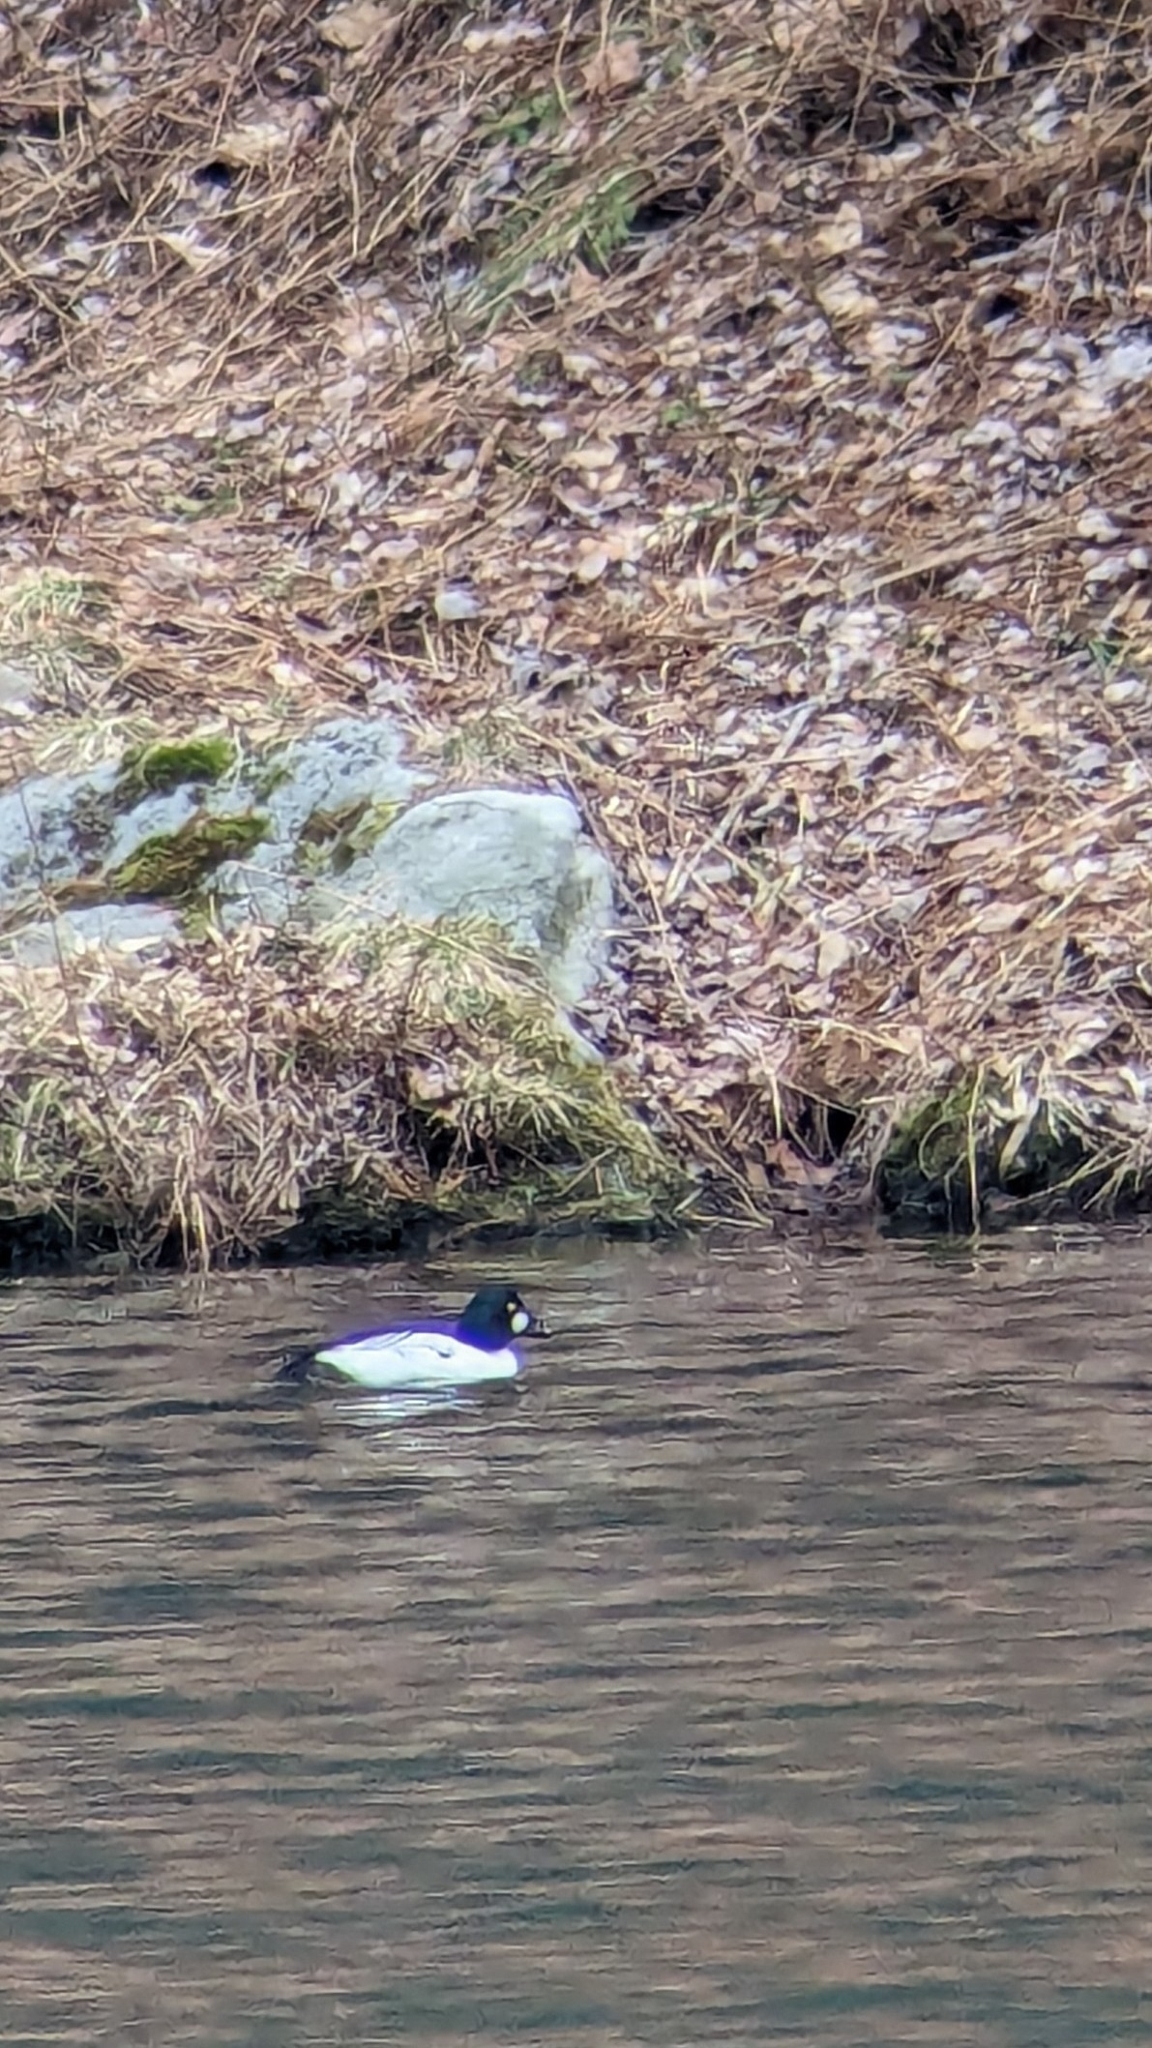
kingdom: Animalia
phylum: Chordata
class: Aves
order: Anseriformes
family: Anatidae
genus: Bucephala
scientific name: Bucephala clangula
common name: Common goldeneye
